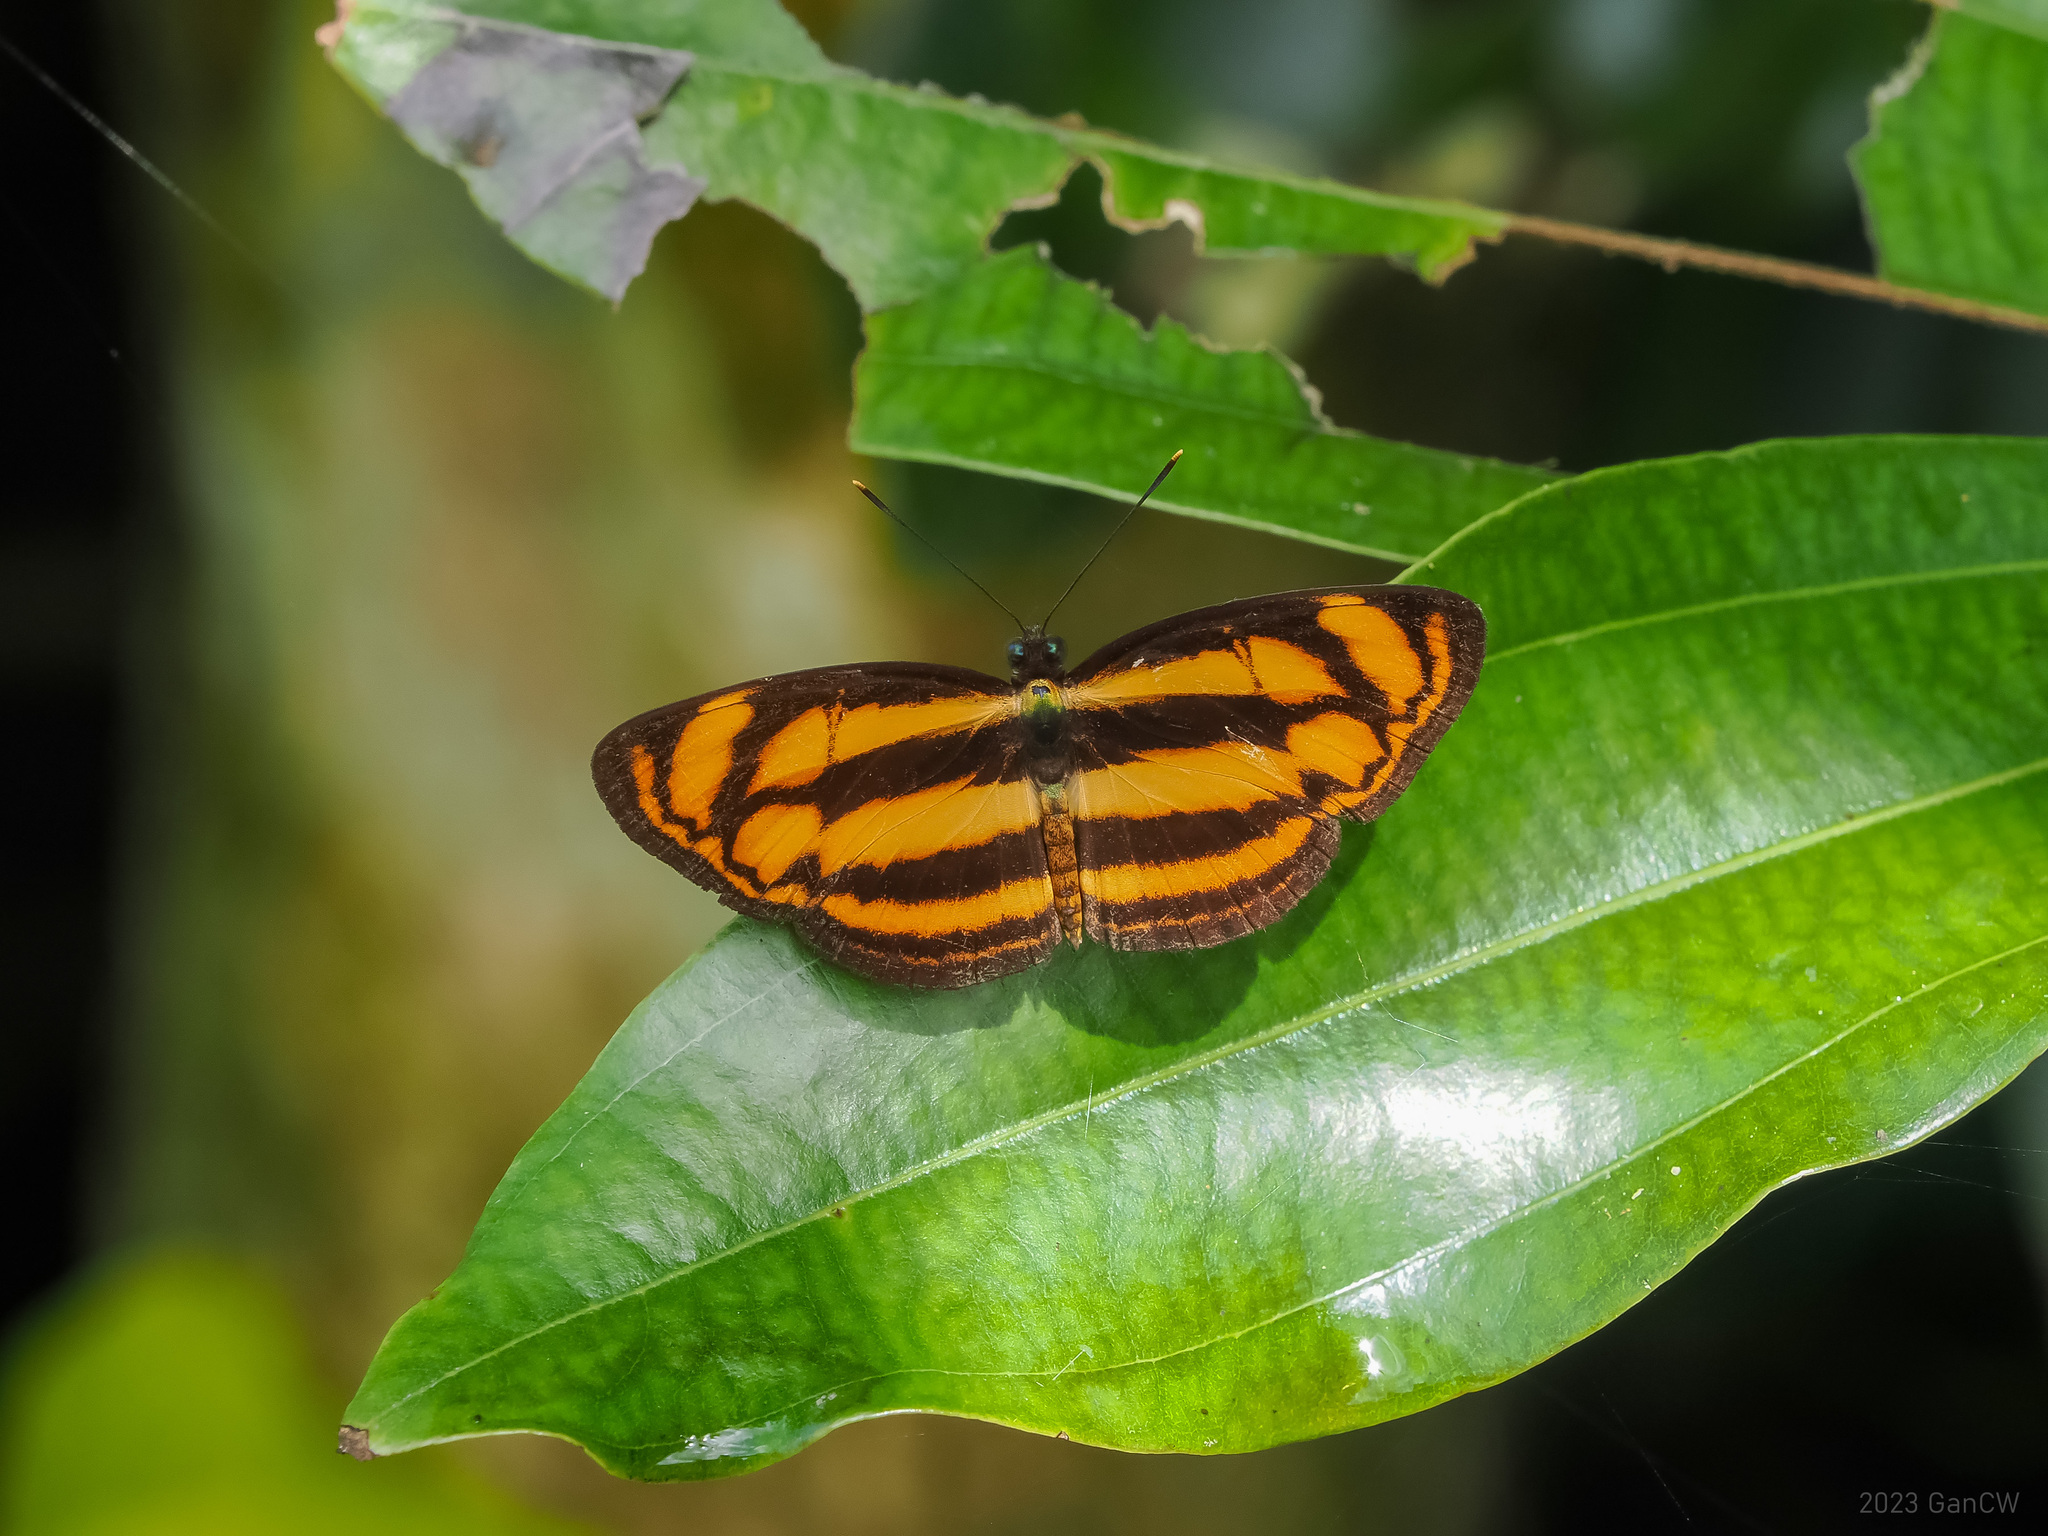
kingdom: Animalia
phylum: Arthropoda
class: Insecta
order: Lepidoptera
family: Nymphalidae
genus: Lasippa
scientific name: Lasippa tiga
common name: Malayan lascar
